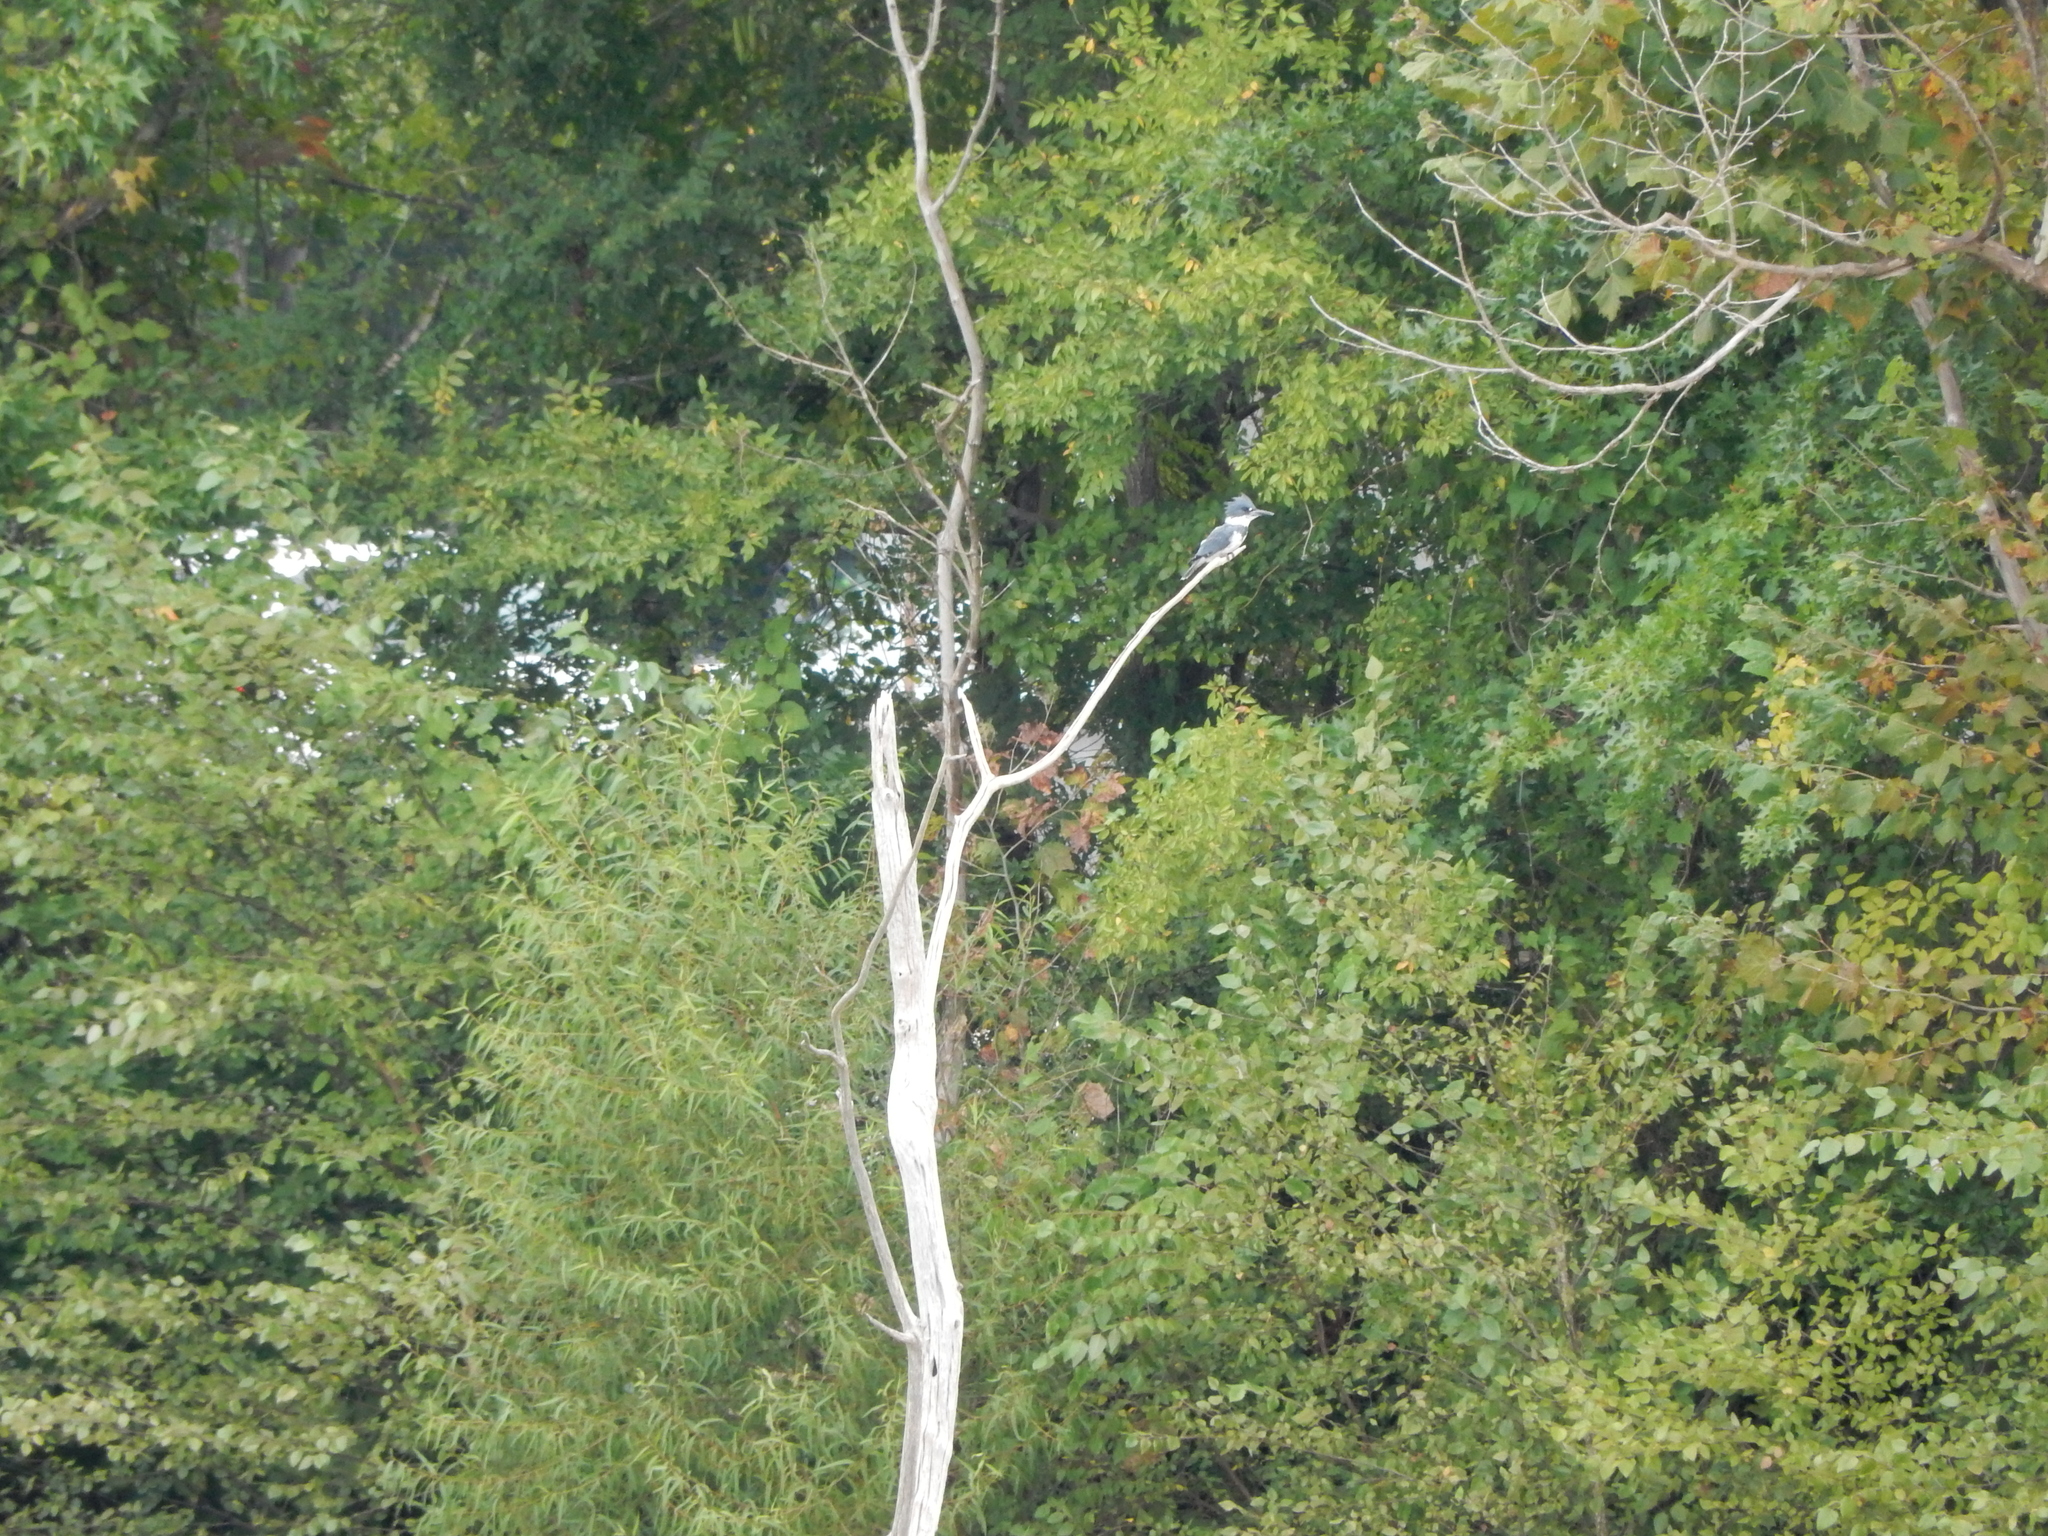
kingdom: Animalia
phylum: Chordata
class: Aves
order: Coraciiformes
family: Alcedinidae
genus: Megaceryle
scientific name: Megaceryle alcyon
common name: Belted kingfisher
